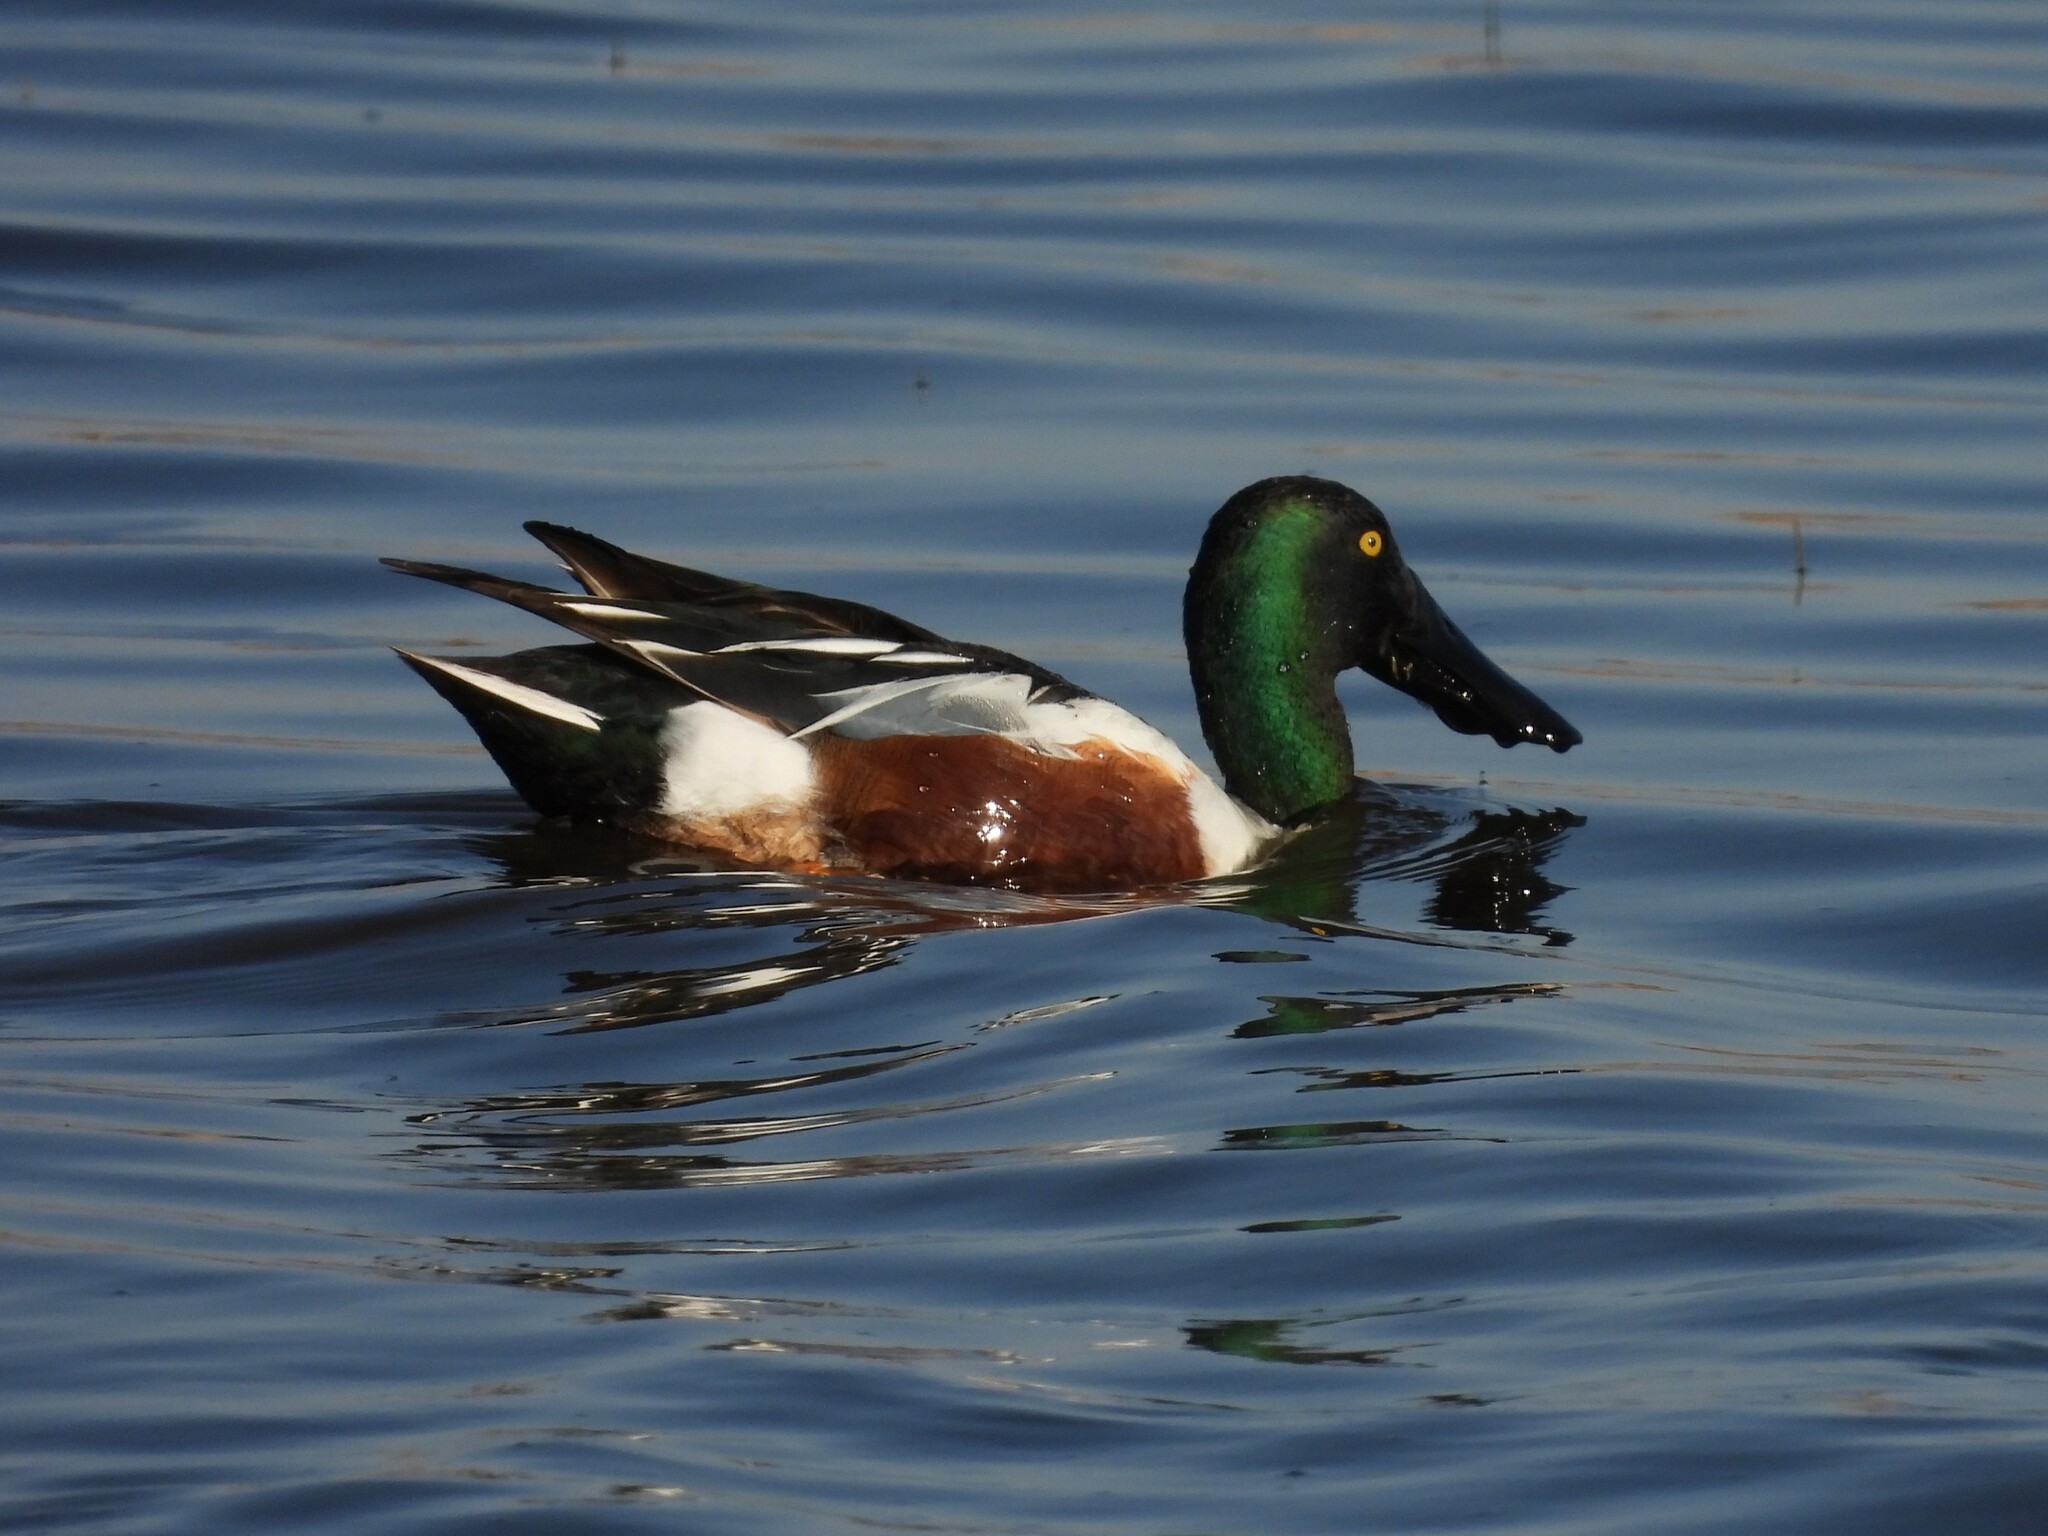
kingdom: Animalia
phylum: Chordata
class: Aves
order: Anseriformes
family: Anatidae
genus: Spatula
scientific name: Spatula clypeata
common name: Northern shoveler
